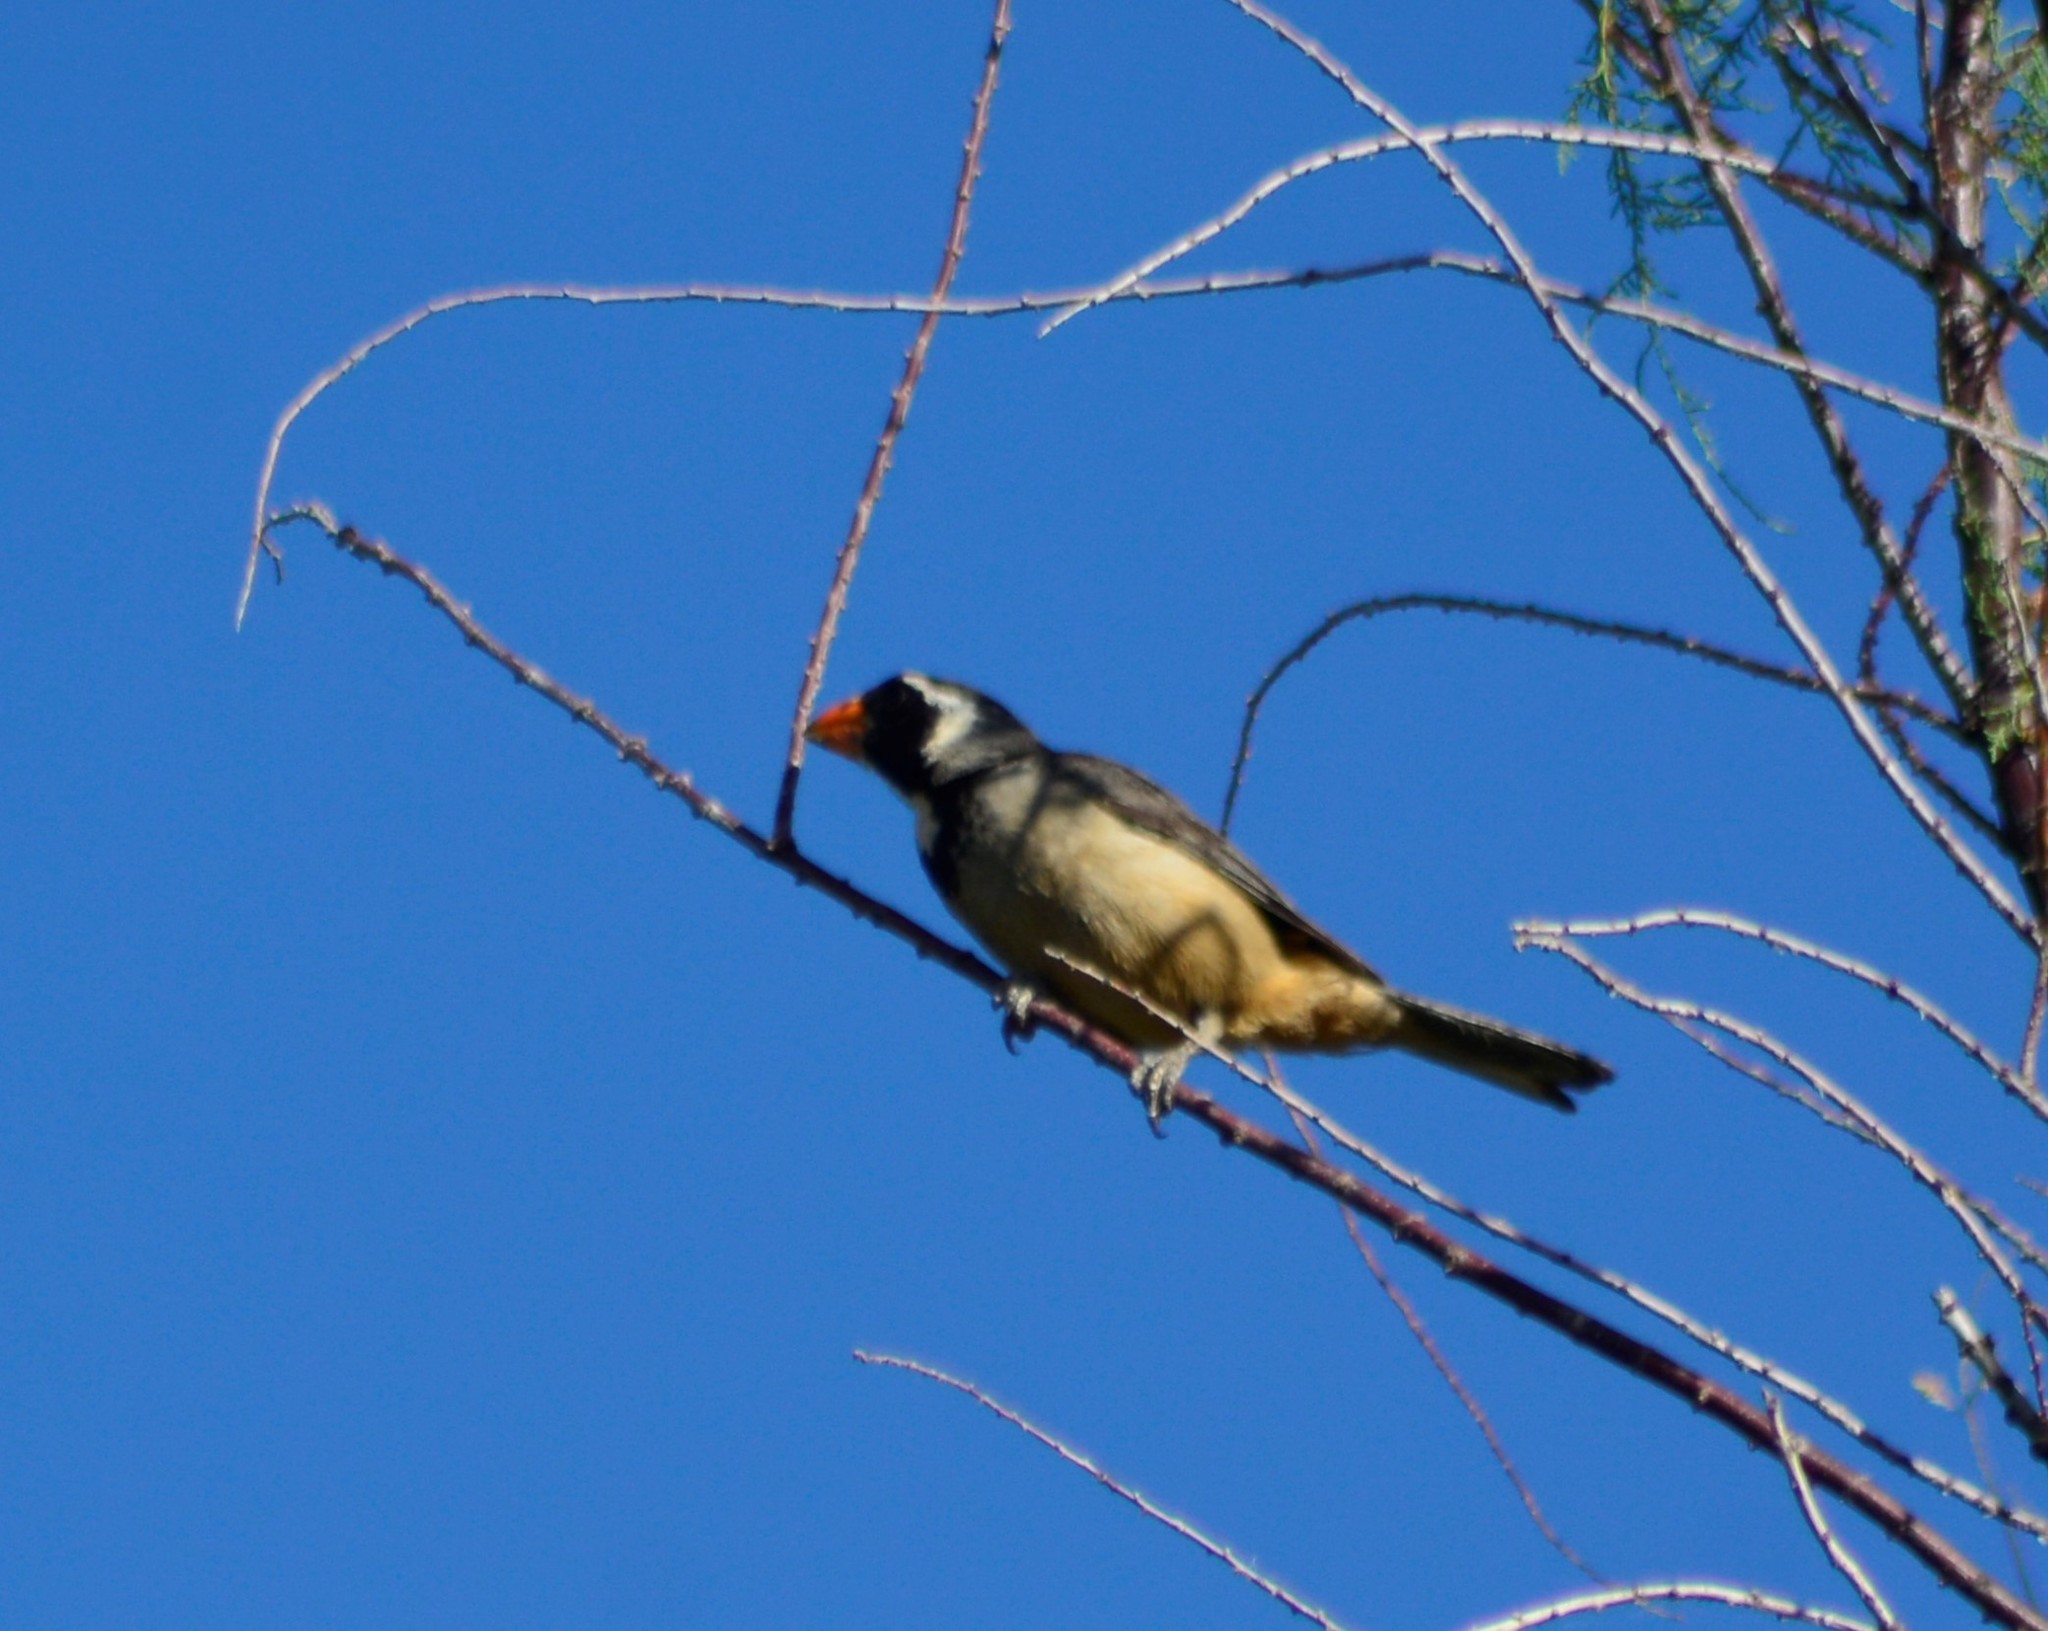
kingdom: Animalia
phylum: Chordata
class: Aves
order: Passeriformes
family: Thraupidae
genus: Saltator
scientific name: Saltator aurantiirostris
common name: Golden-billed saltator
